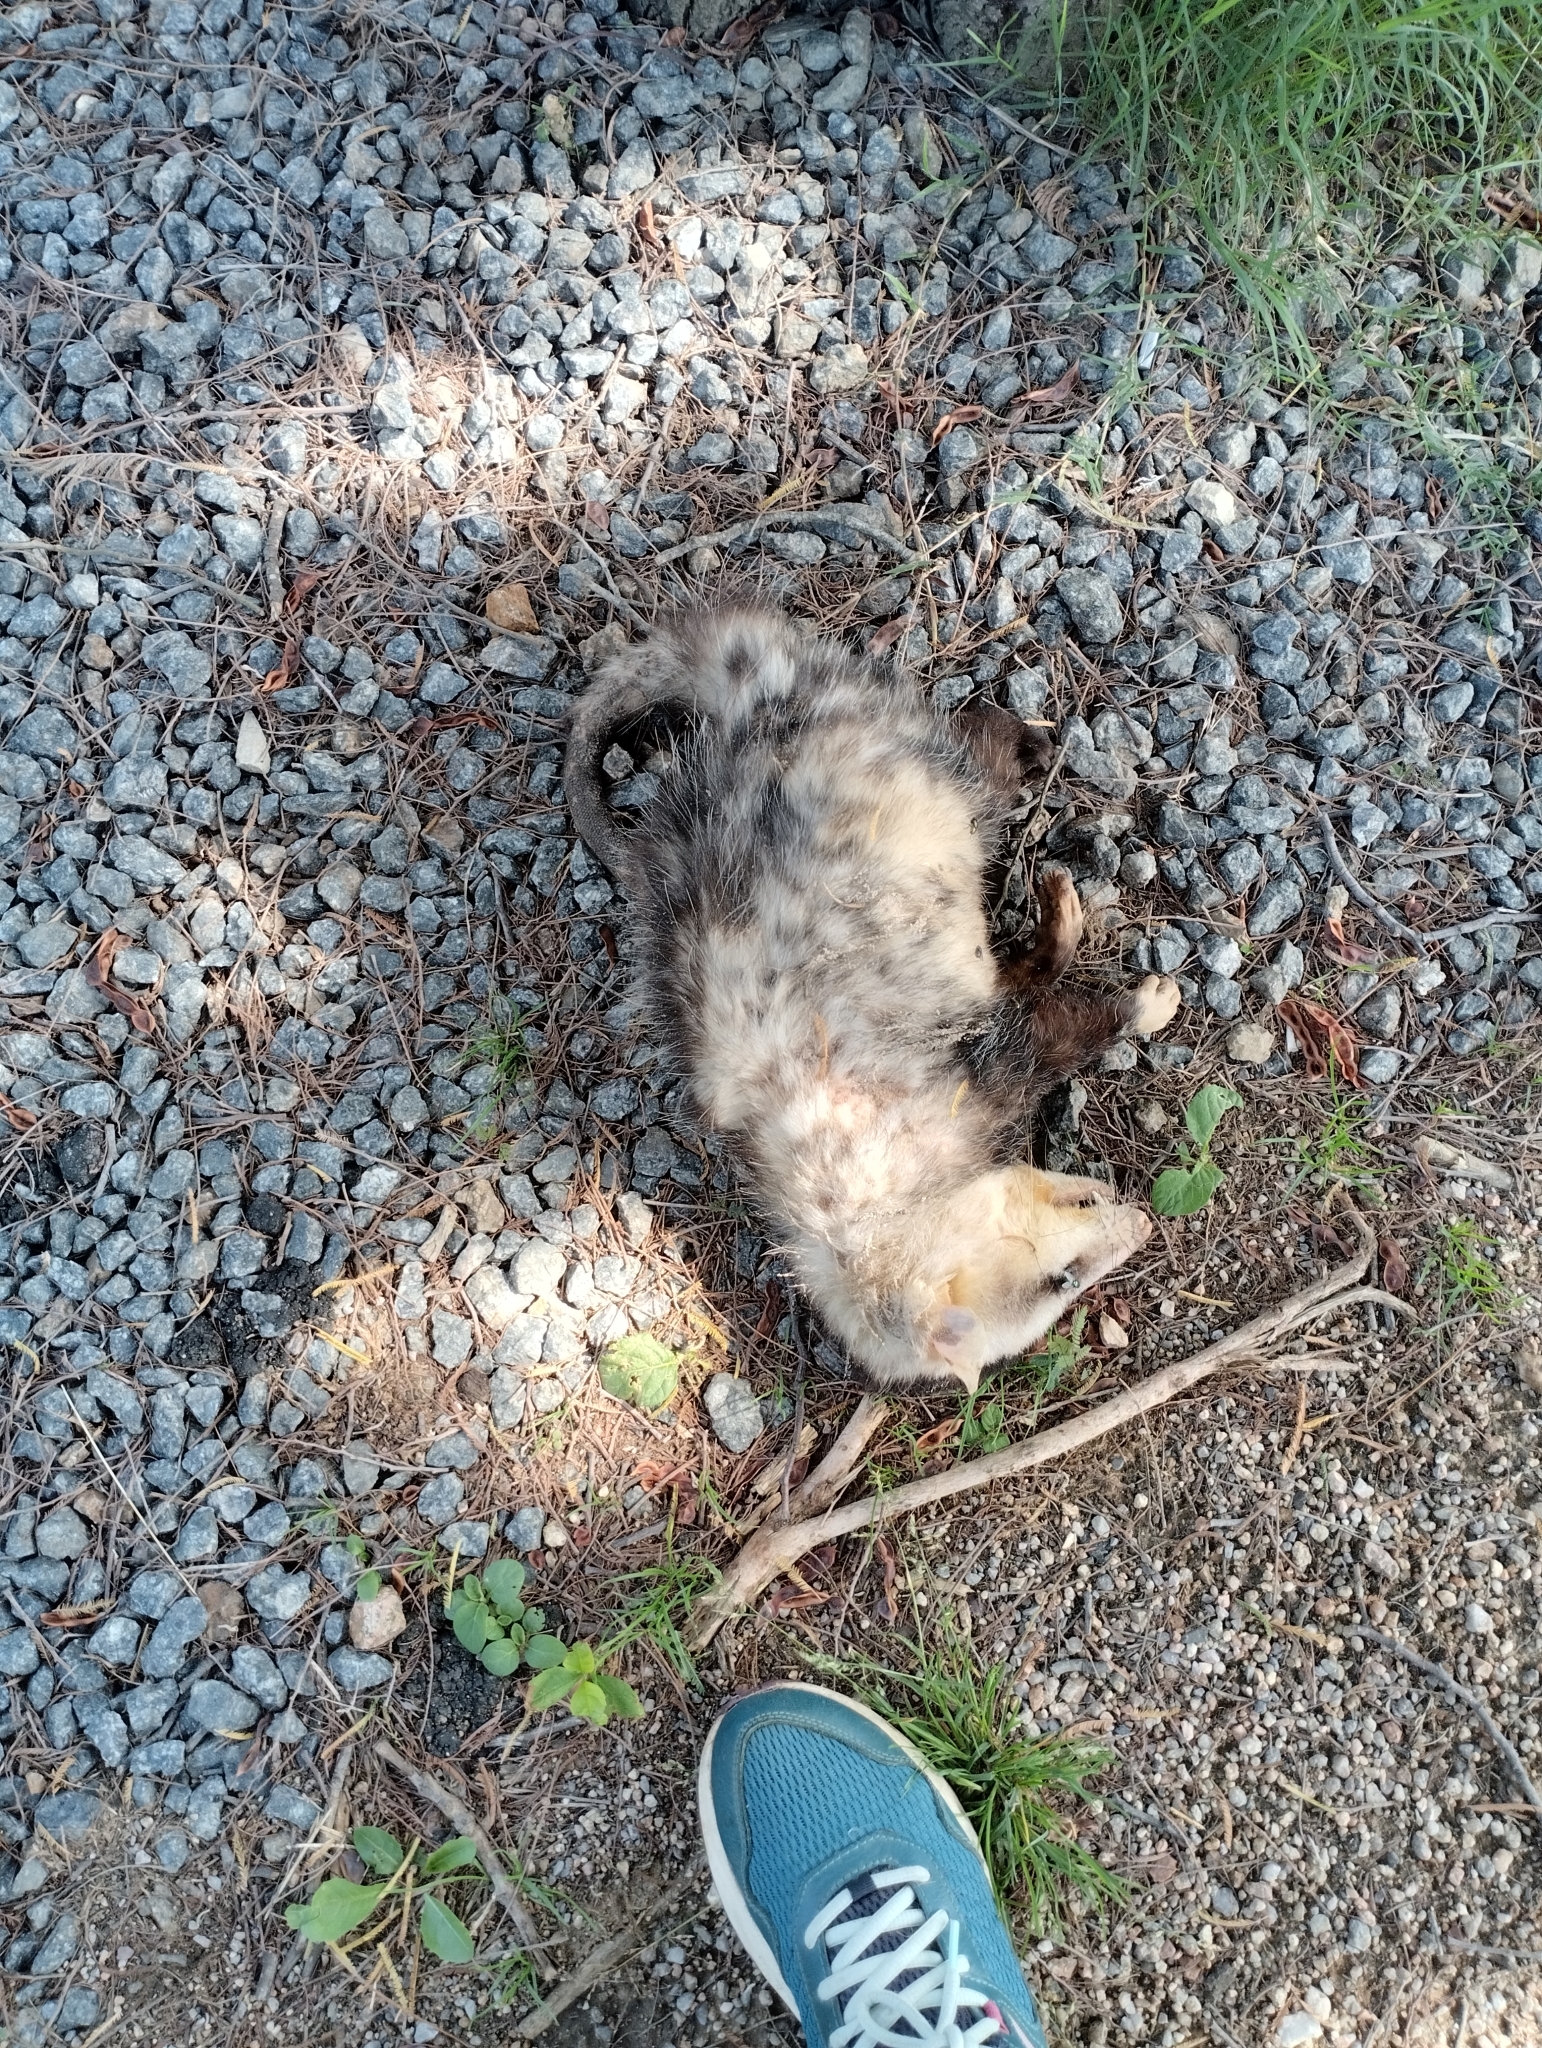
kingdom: Animalia
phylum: Chordata
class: Mammalia
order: Didelphimorphia
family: Didelphidae
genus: Didelphis
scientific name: Didelphis albiventris
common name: White-eared opossum
